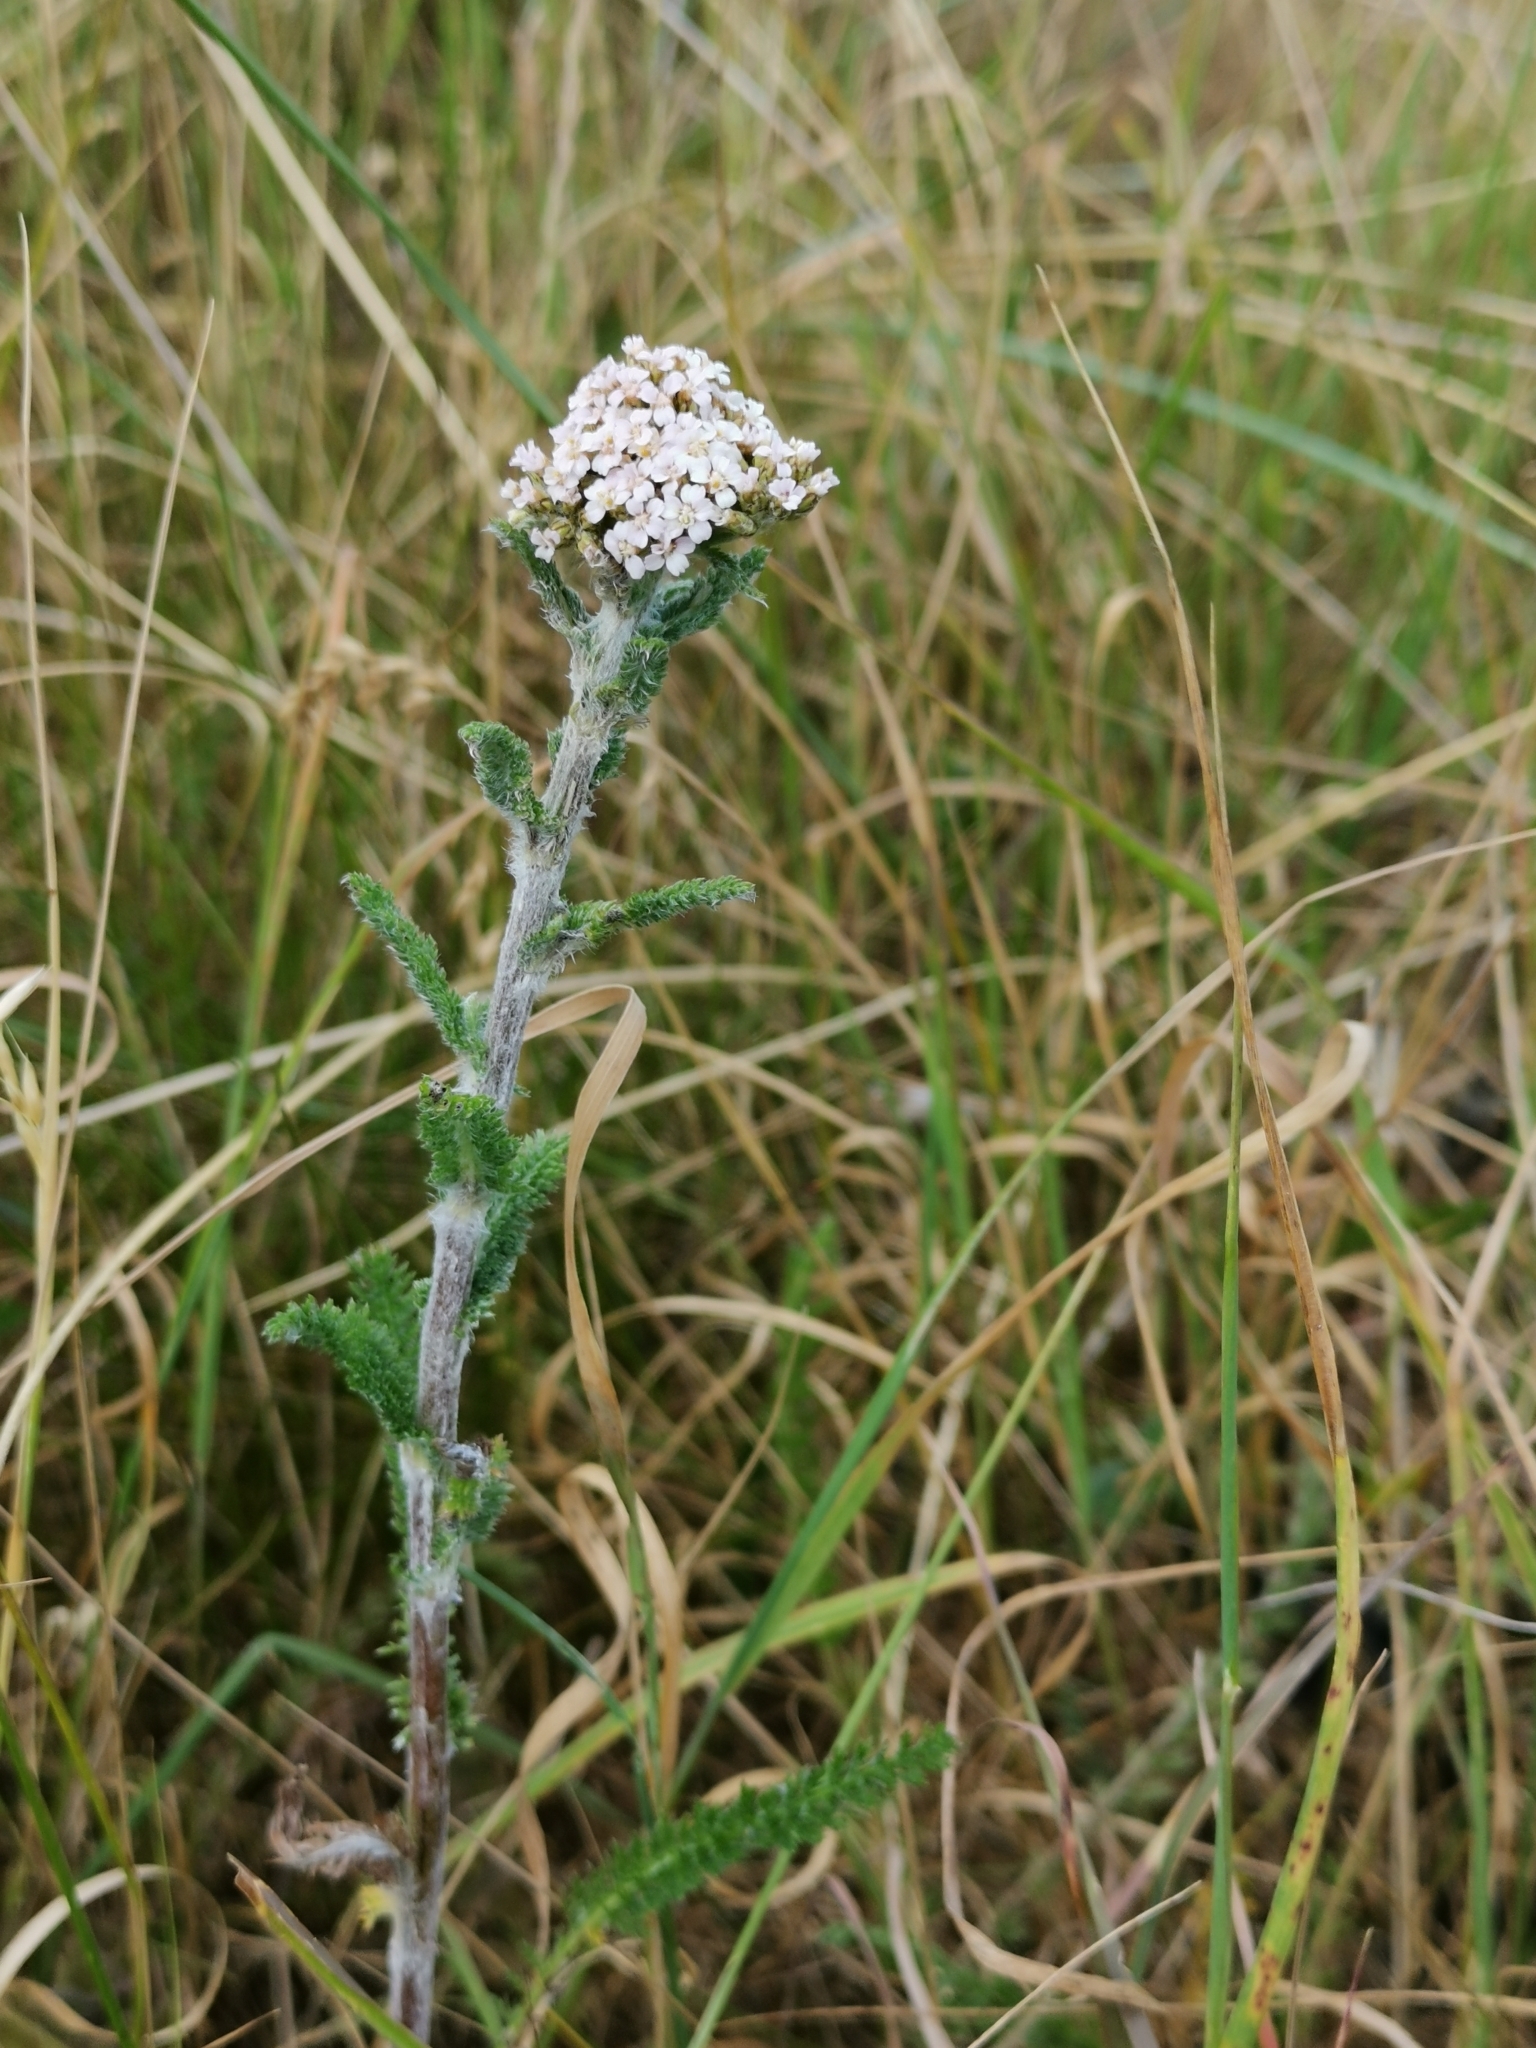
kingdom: Plantae
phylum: Tracheophyta
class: Magnoliopsida
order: Asterales
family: Asteraceae
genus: Achillea
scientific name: Achillea millefolium
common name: Yarrow
